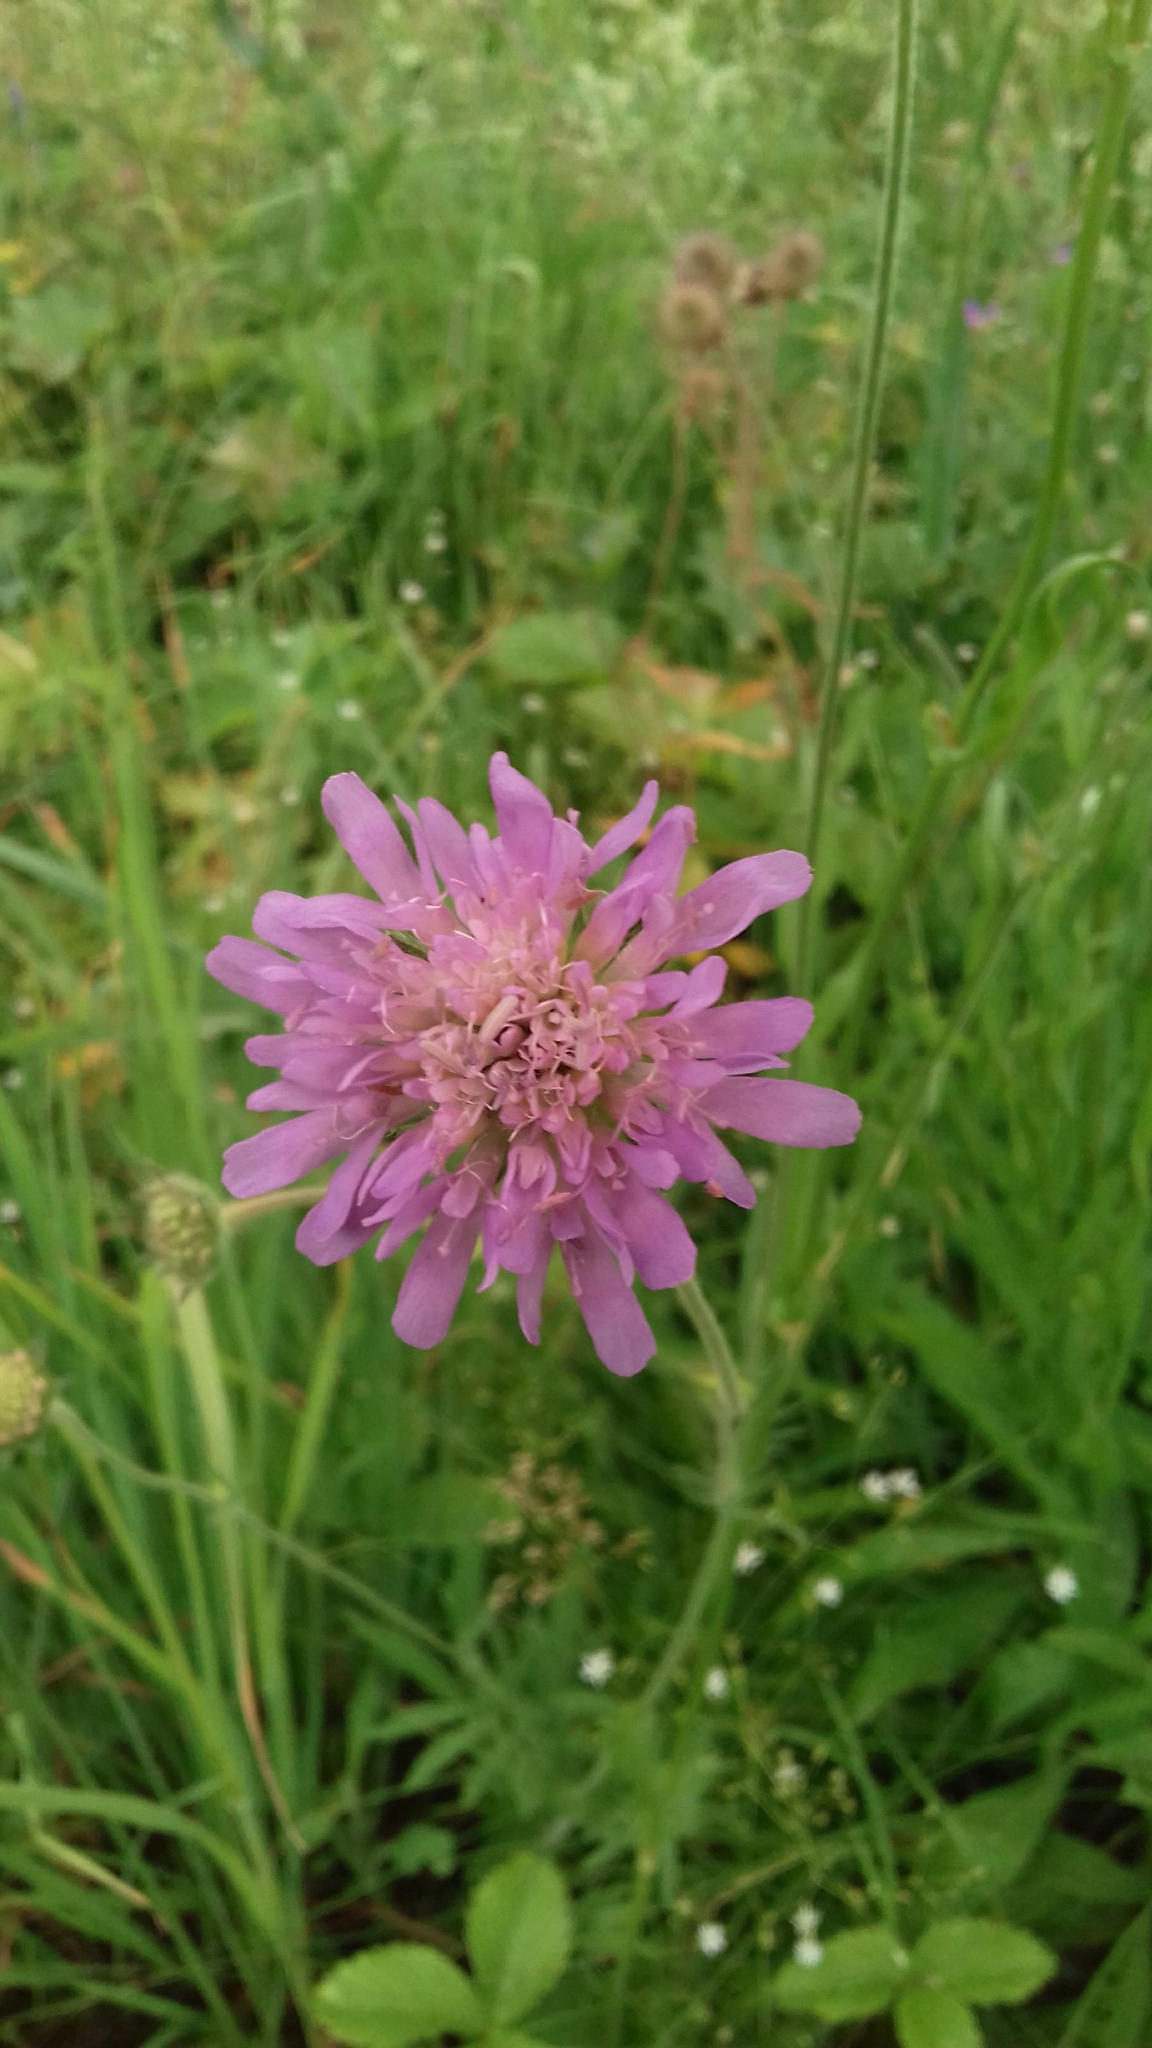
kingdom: Plantae
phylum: Tracheophyta
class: Magnoliopsida
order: Dipsacales
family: Caprifoliaceae
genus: Knautia
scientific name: Knautia arvensis
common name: Field scabiosa
